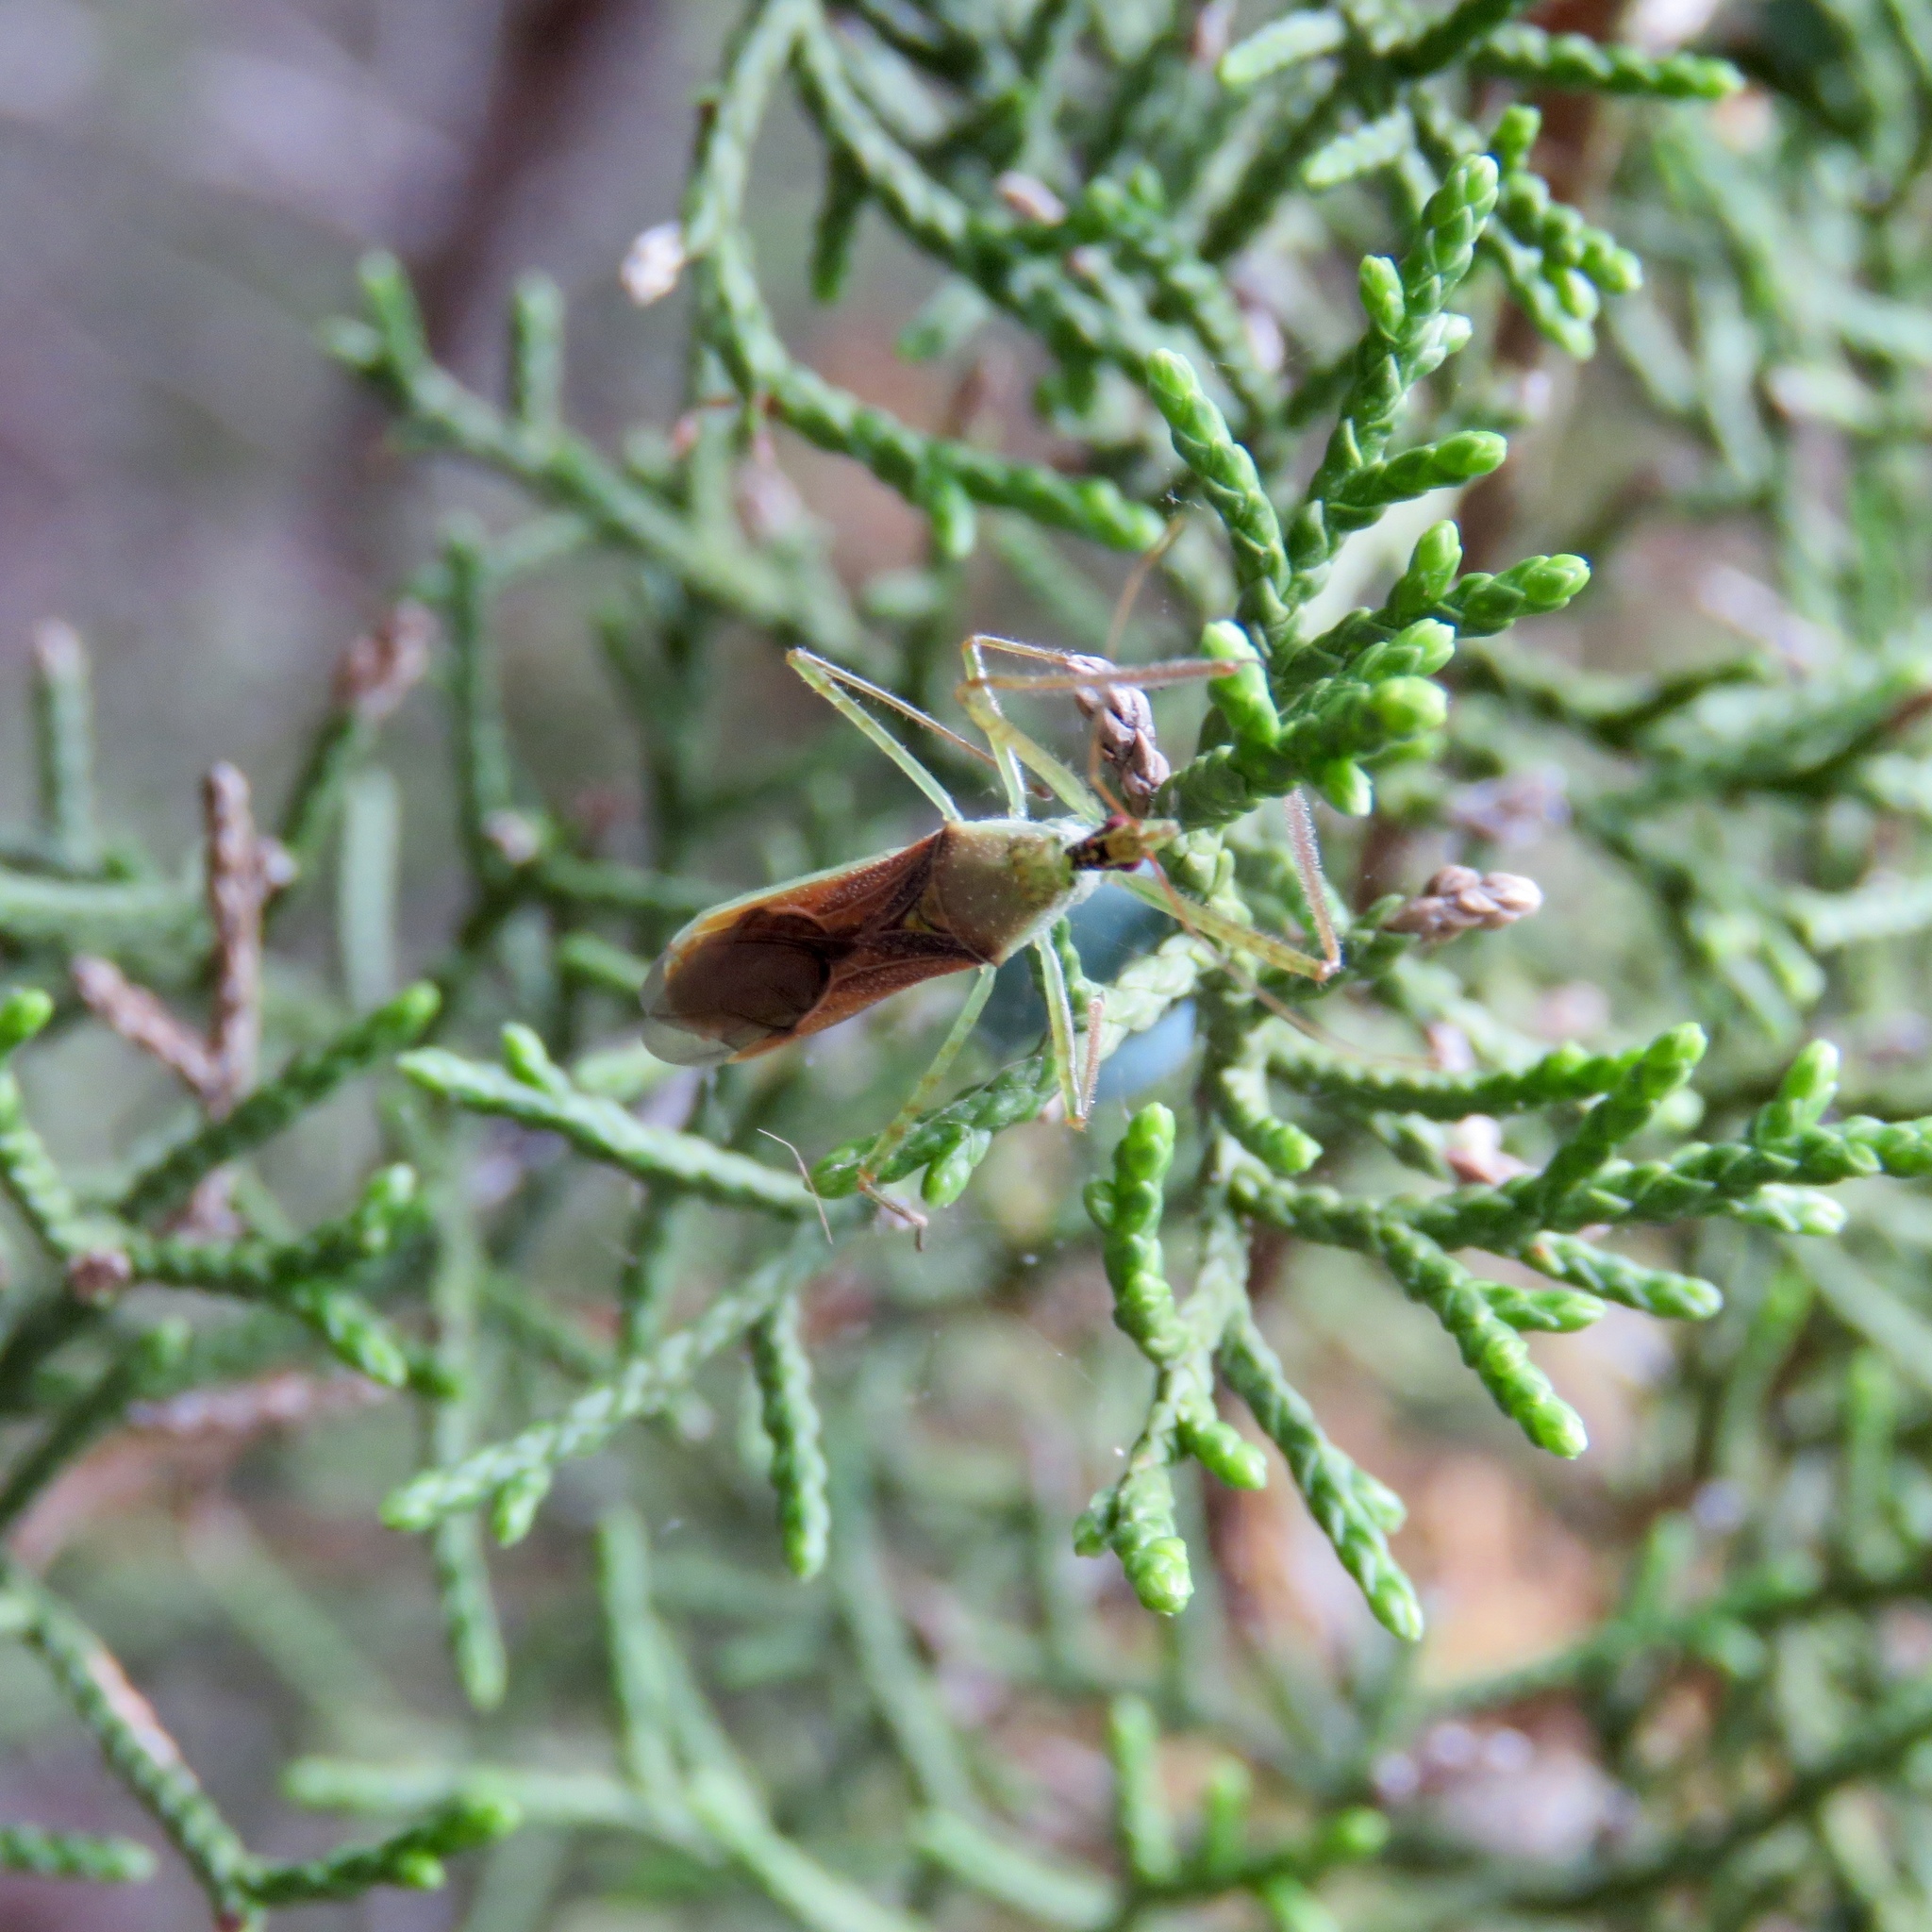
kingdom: Animalia
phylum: Arthropoda
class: Insecta
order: Hemiptera
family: Reduviidae
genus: Zelus
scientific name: Zelus renardii
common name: Assassin bug
